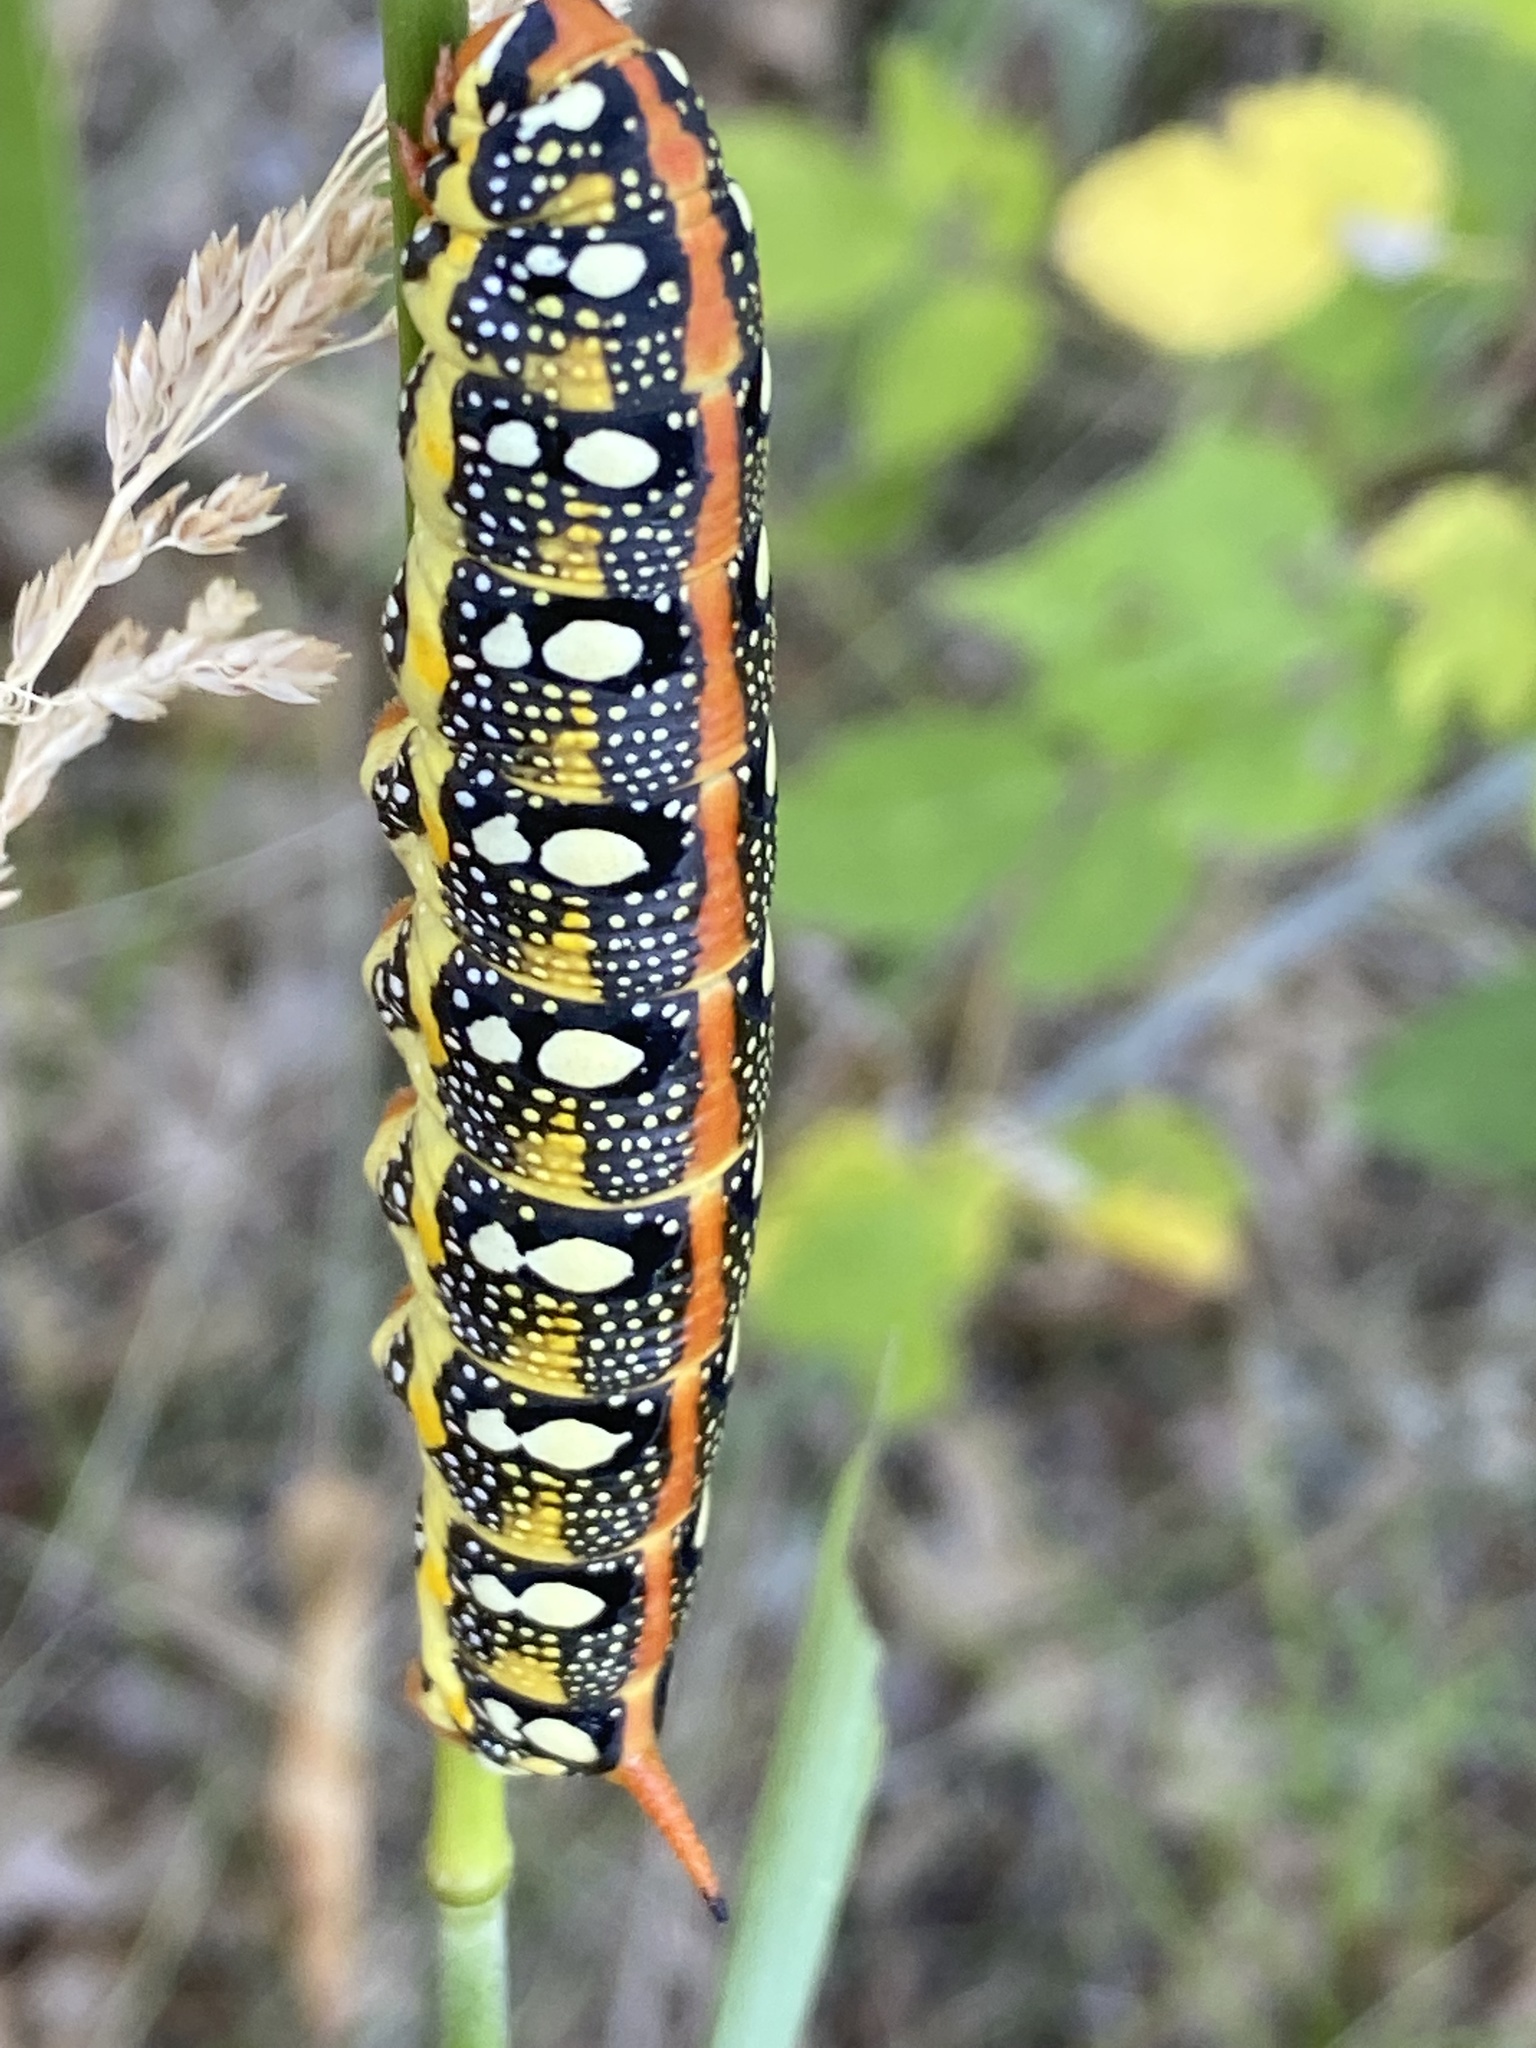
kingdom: Animalia
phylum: Arthropoda
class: Insecta
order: Lepidoptera
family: Sphingidae
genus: Hyles
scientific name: Hyles euphorbiae
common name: Spurge hawk-moth
